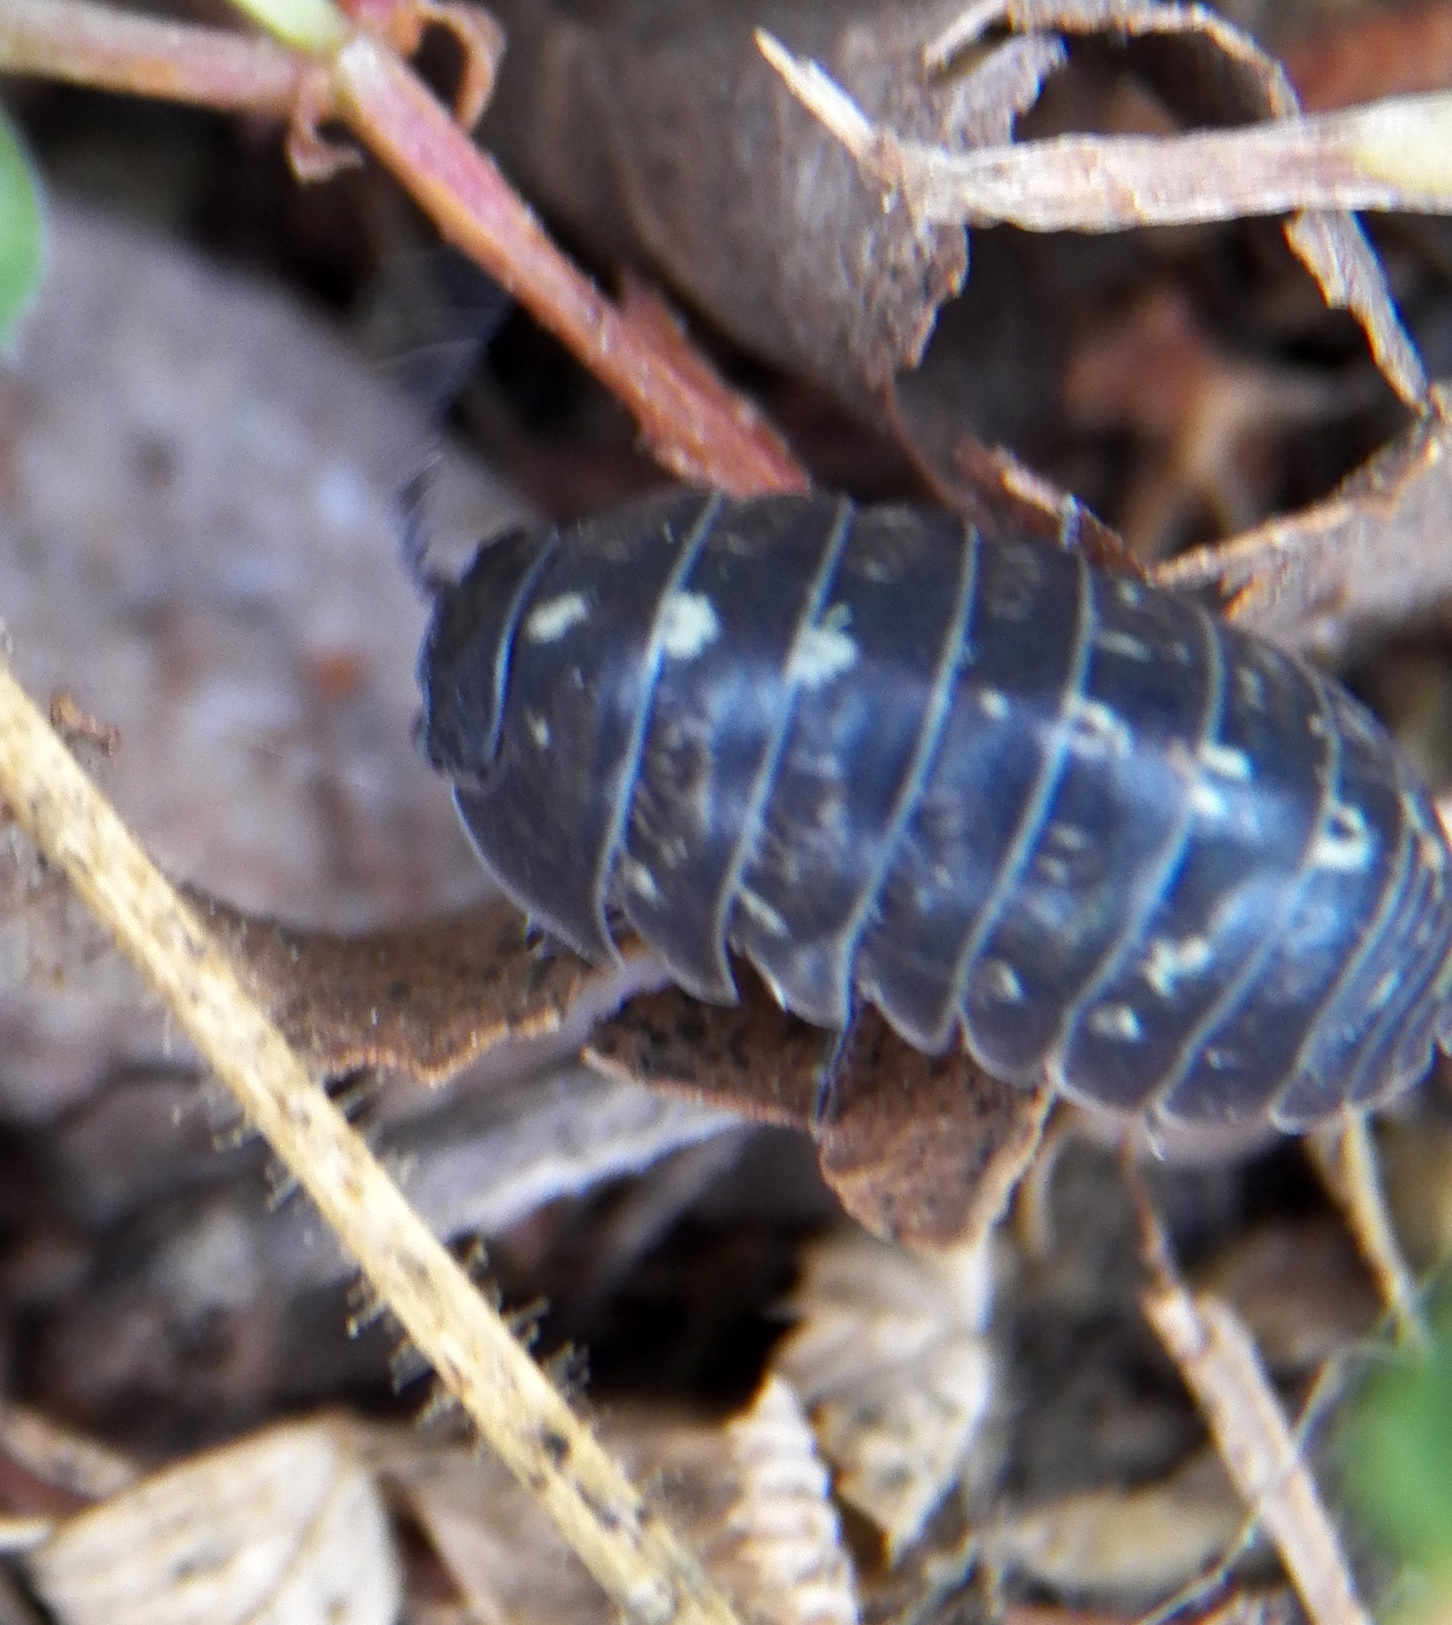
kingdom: Animalia
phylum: Arthropoda
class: Malacostraca
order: Isopoda
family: Armadillidiidae
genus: Armadillidium
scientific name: Armadillidium vulgare
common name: Common pill woodlouse
